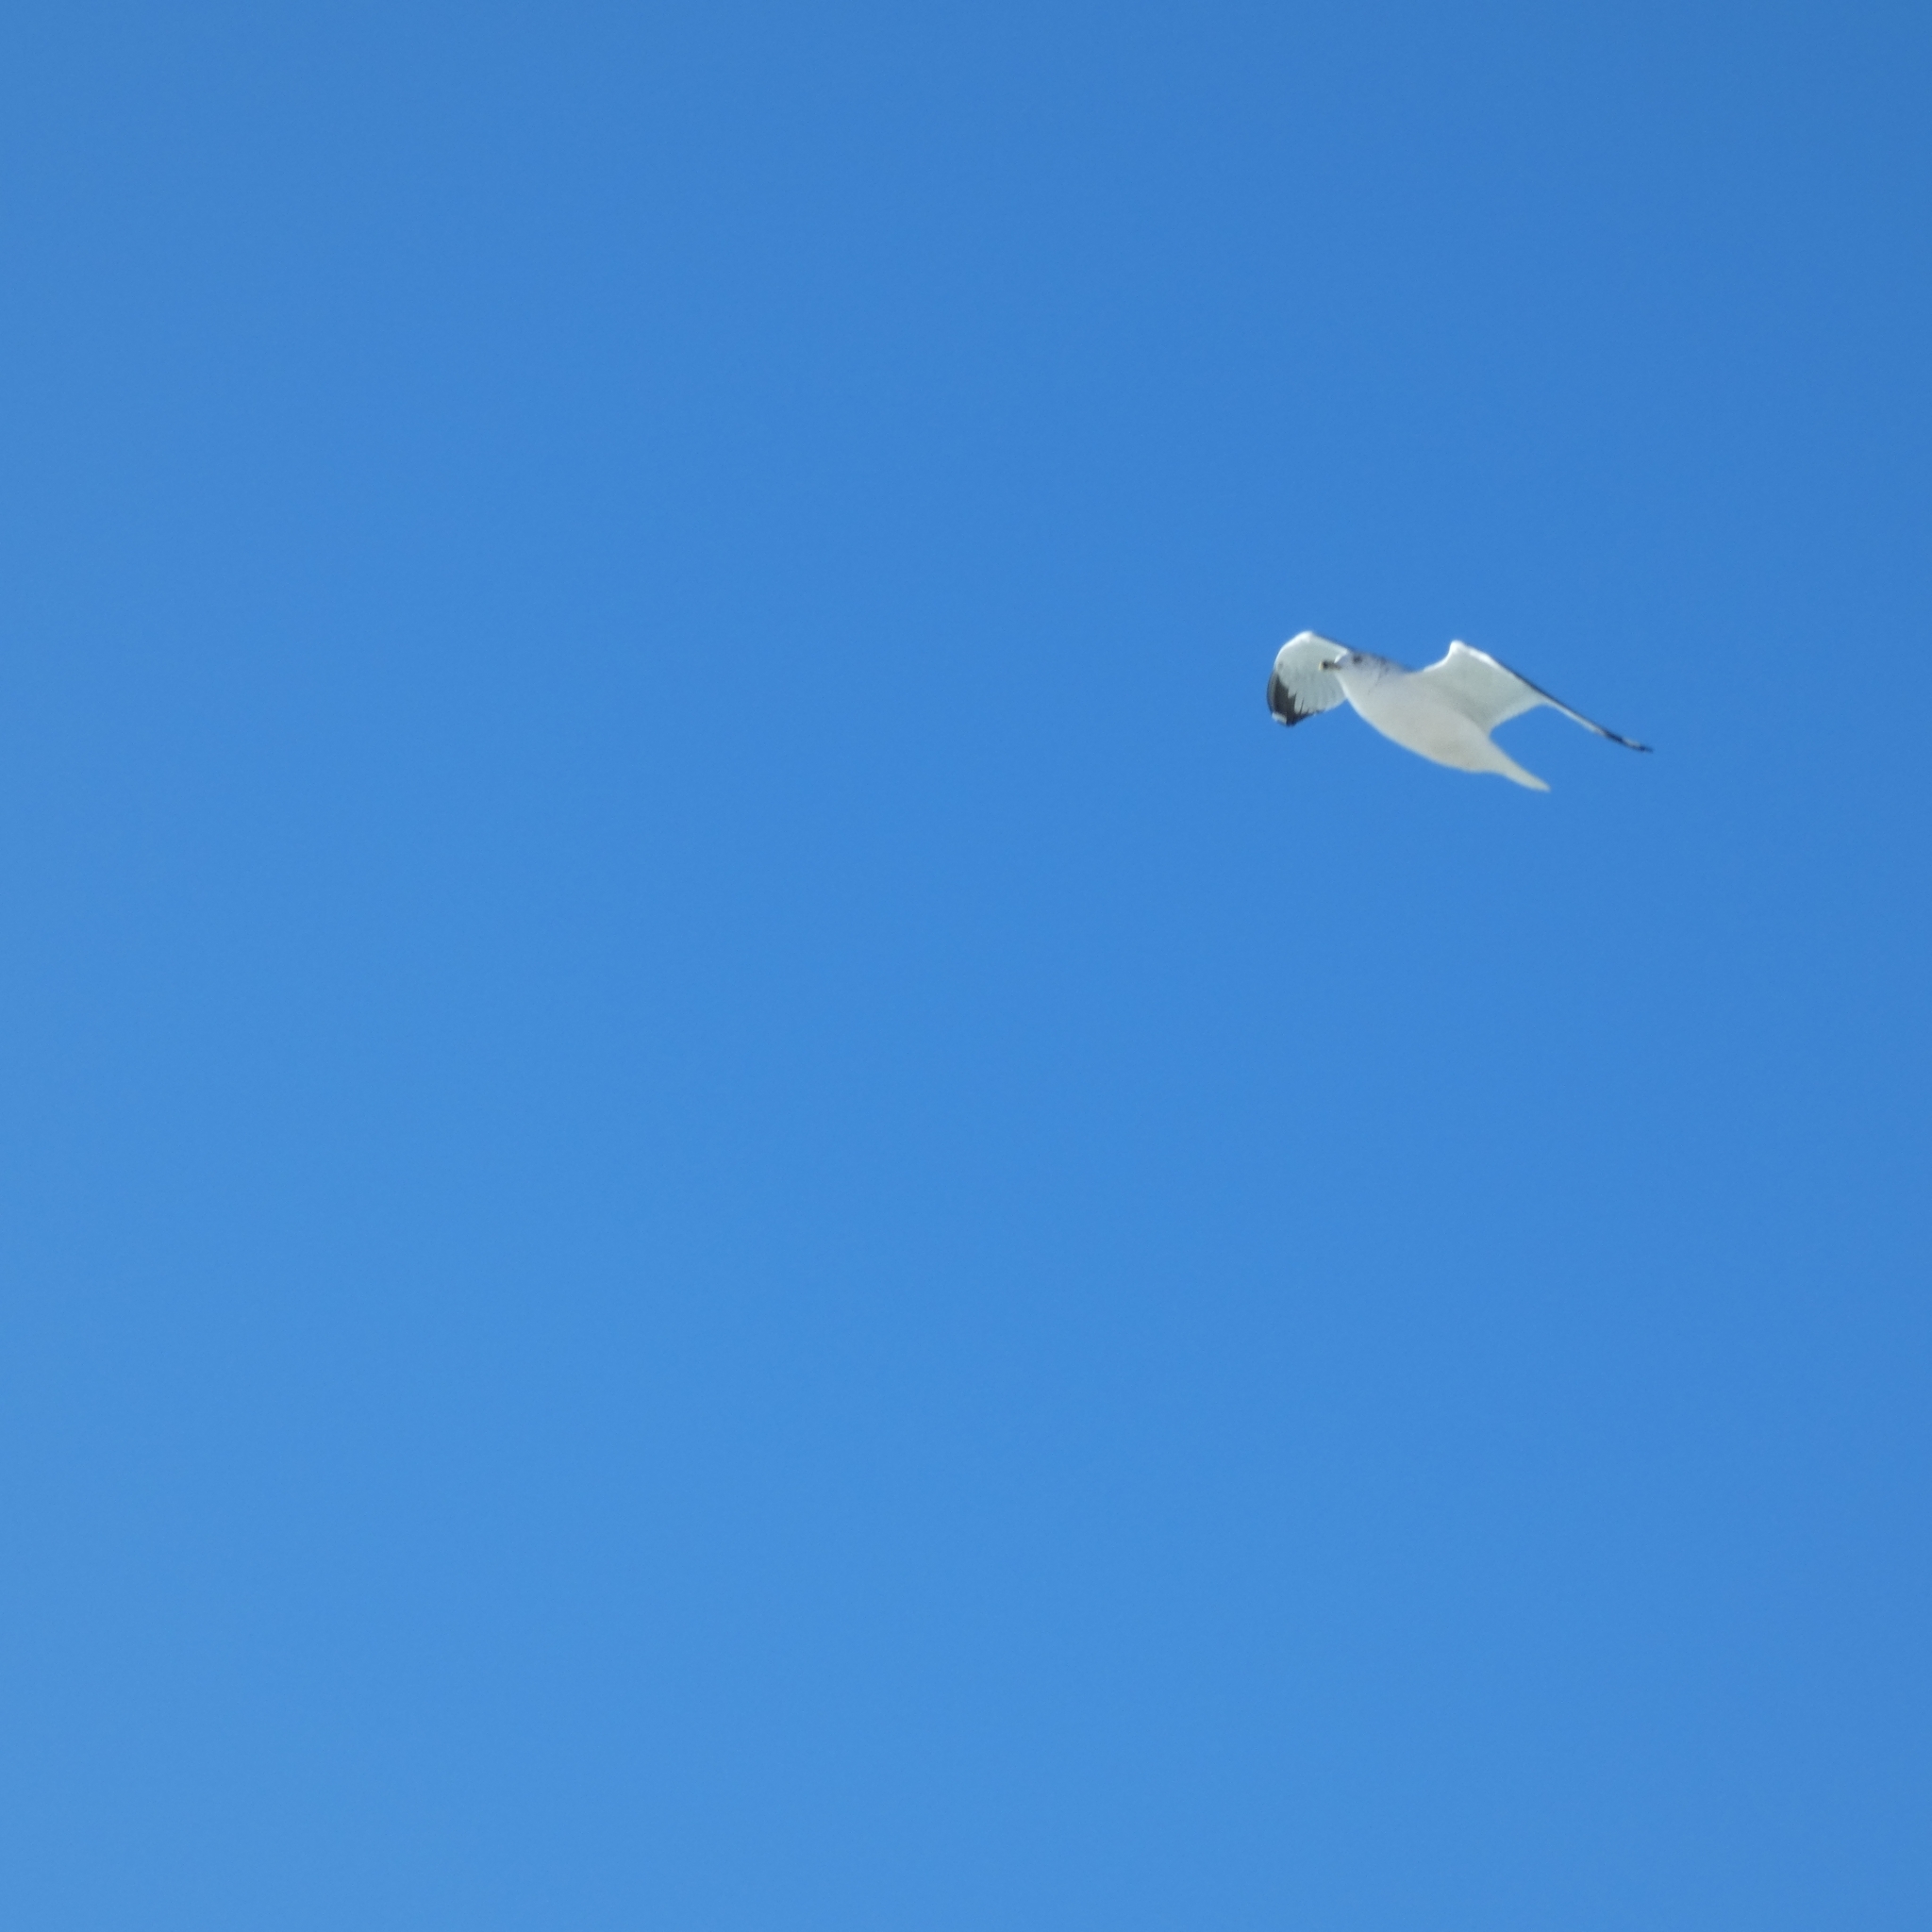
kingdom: Animalia
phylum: Chordata
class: Aves
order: Charadriiformes
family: Laridae
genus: Larus
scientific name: Larus delawarensis
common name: Ring-billed gull
